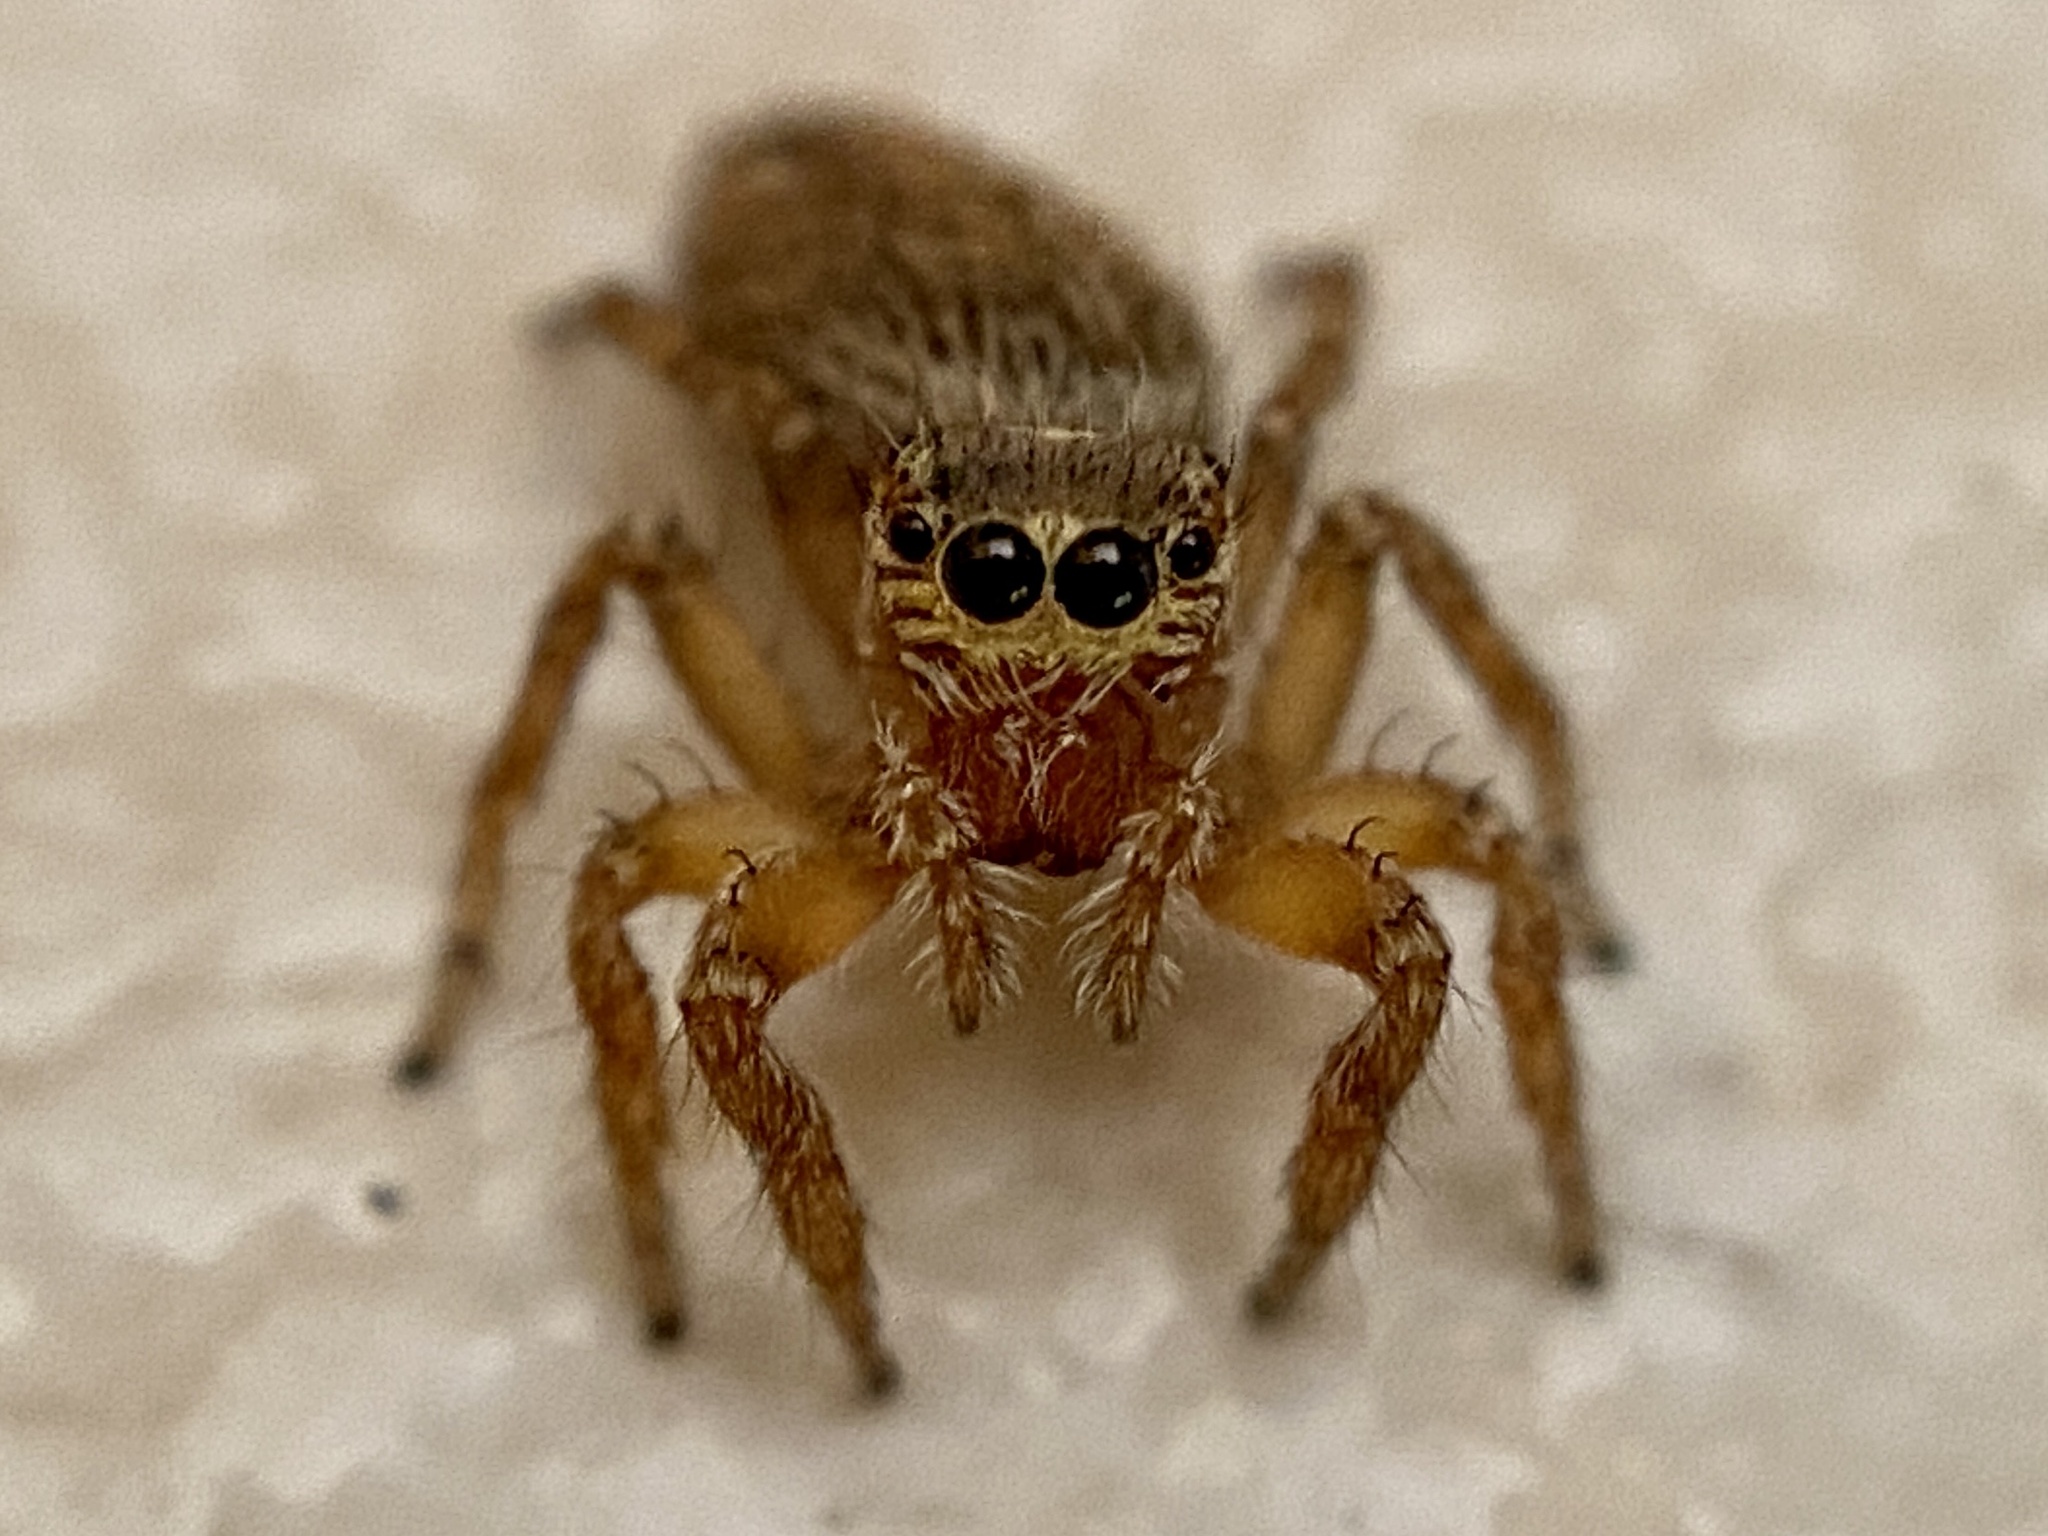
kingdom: Animalia
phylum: Arthropoda
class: Arachnida
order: Araneae
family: Salticidae
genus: Evarcha
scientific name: Evarcha jucunda
